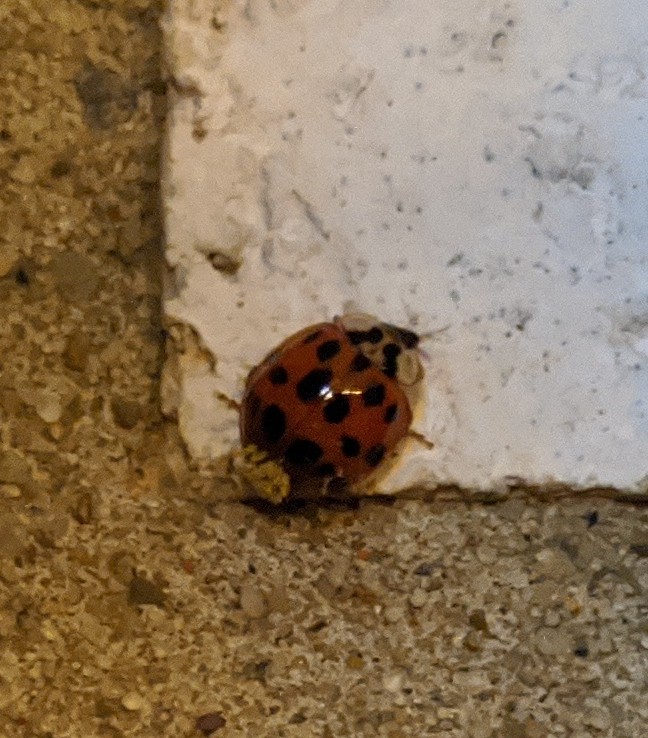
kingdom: Animalia
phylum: Arthropoda
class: Insecta
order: Coleoptera
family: Coccinellidae
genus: Harmonia
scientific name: Harmonia axyridis
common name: Harlequin ladybird
